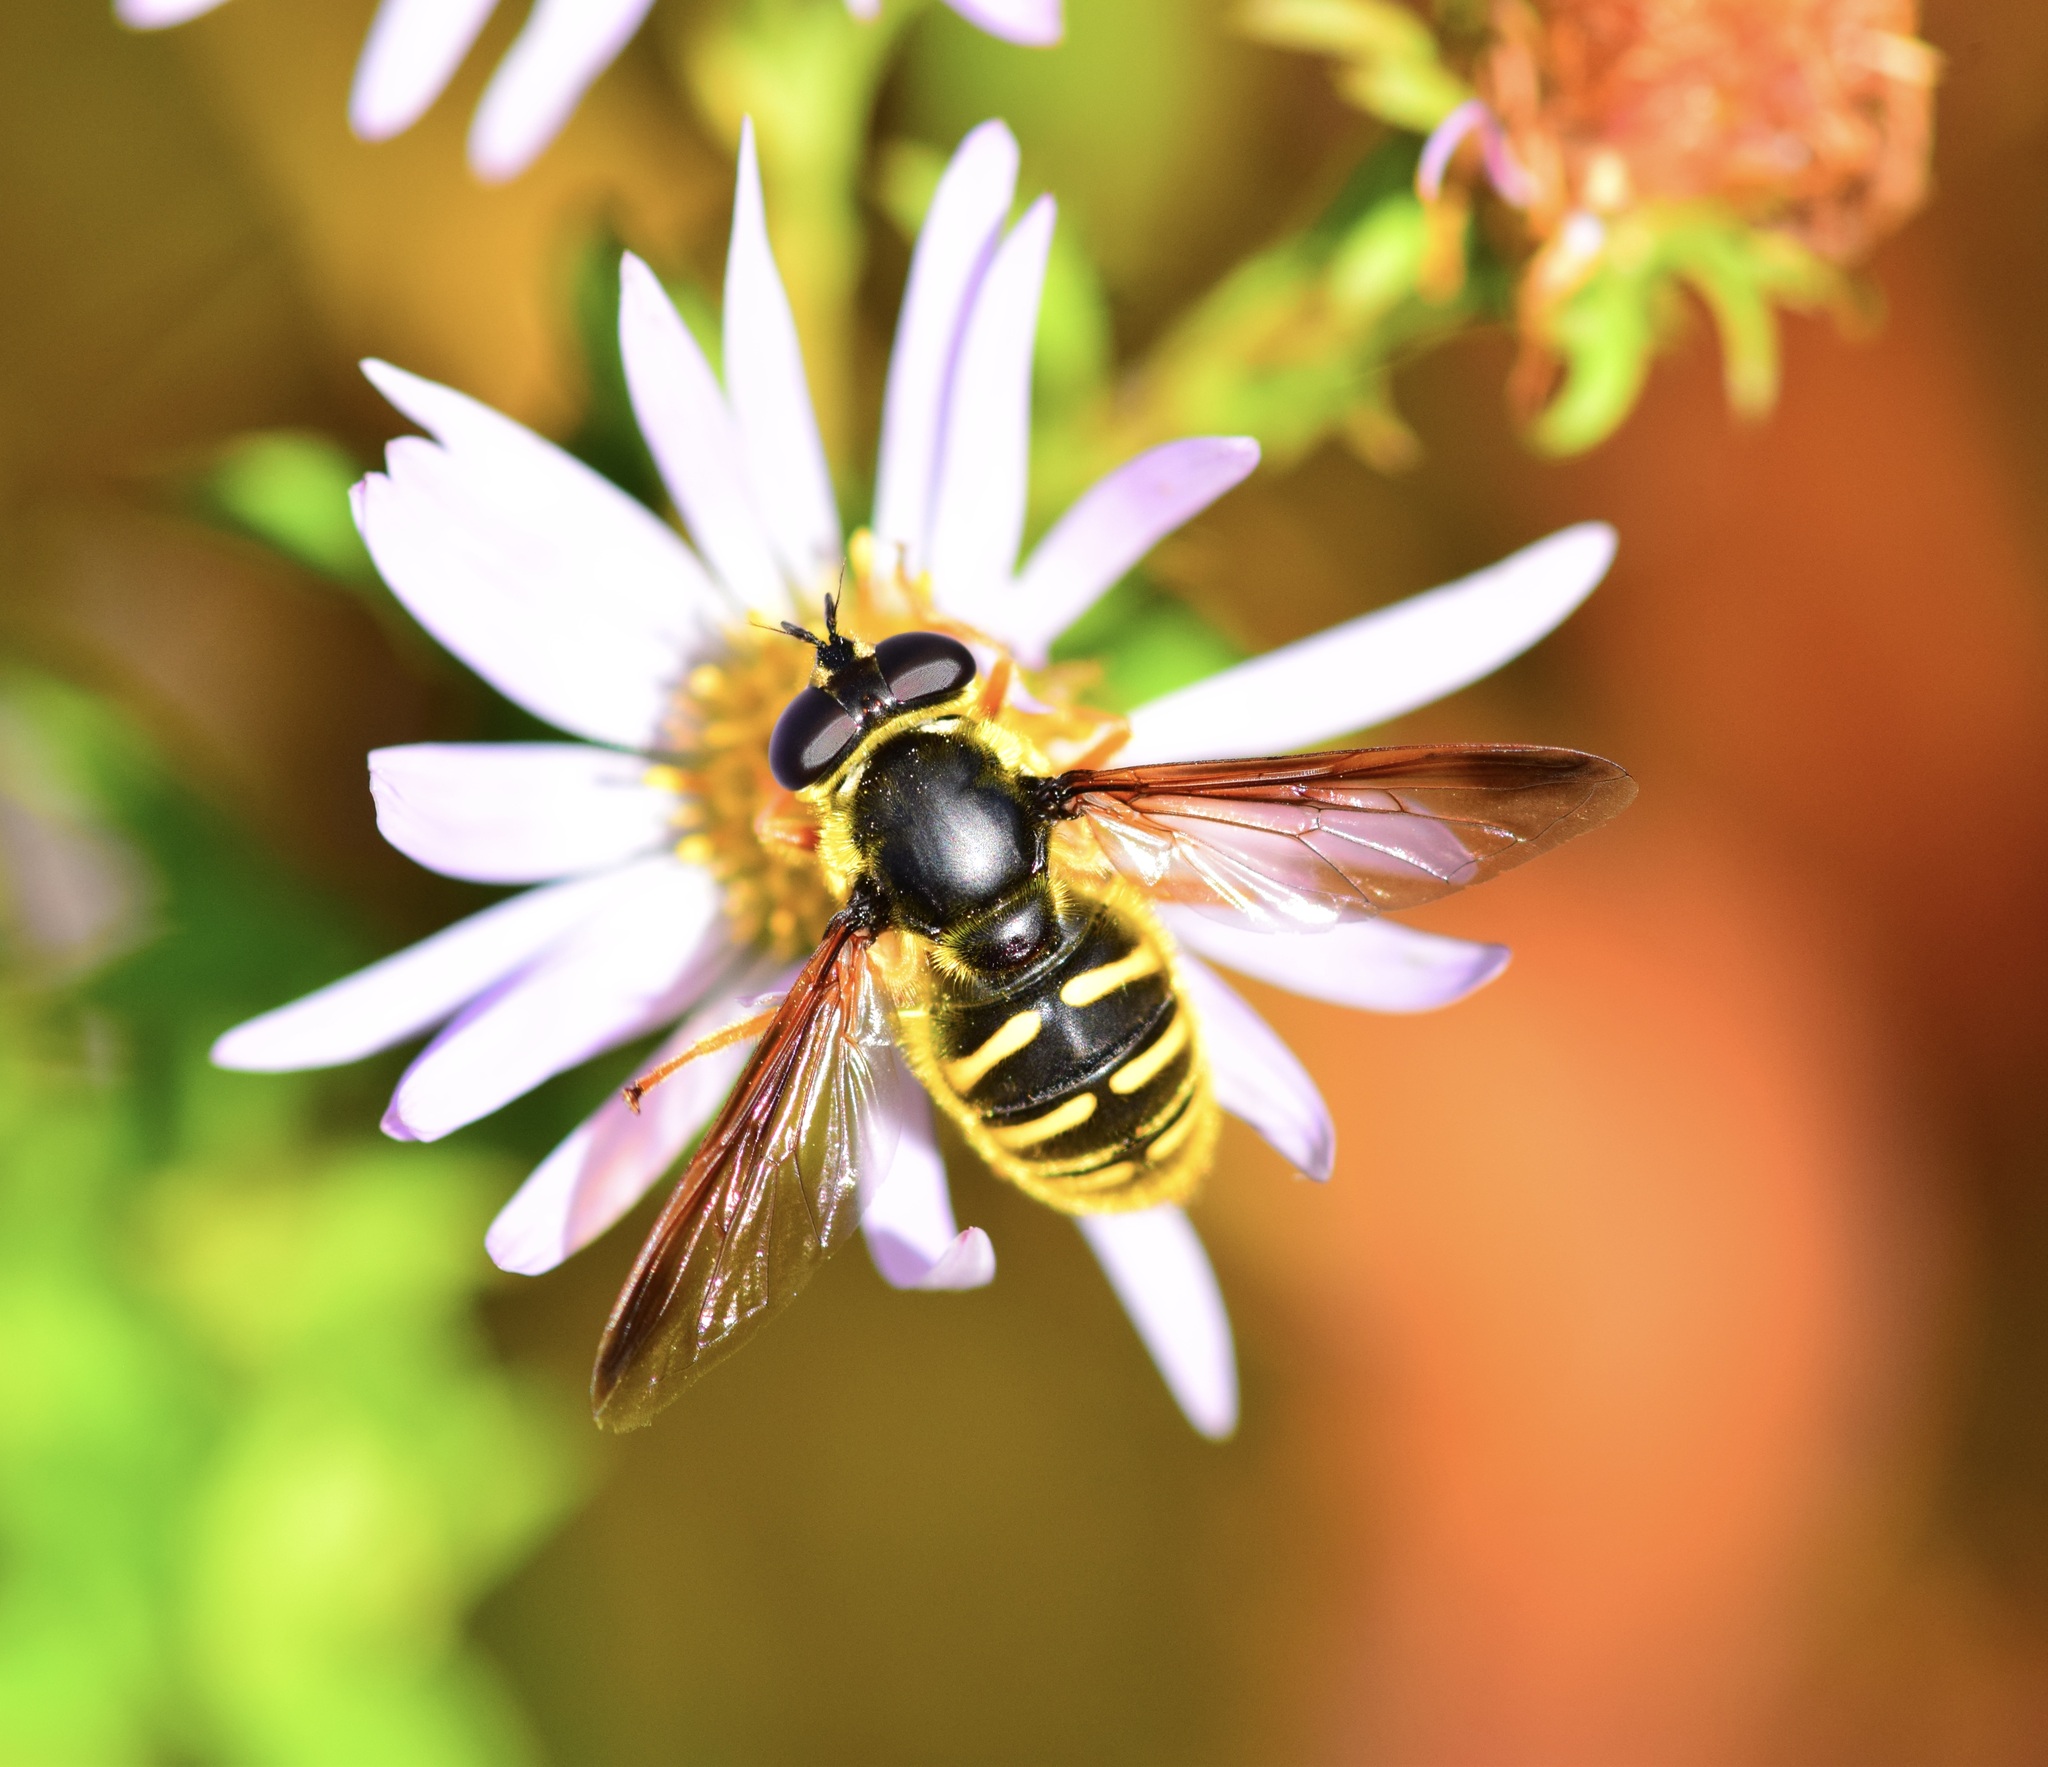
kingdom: Animalia
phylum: Arthropoda
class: Insecta
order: Diptera
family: Syrphidae
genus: Sericomyia
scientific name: Sericomyia chrysotoxoides
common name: Oblique-banded pond fly
